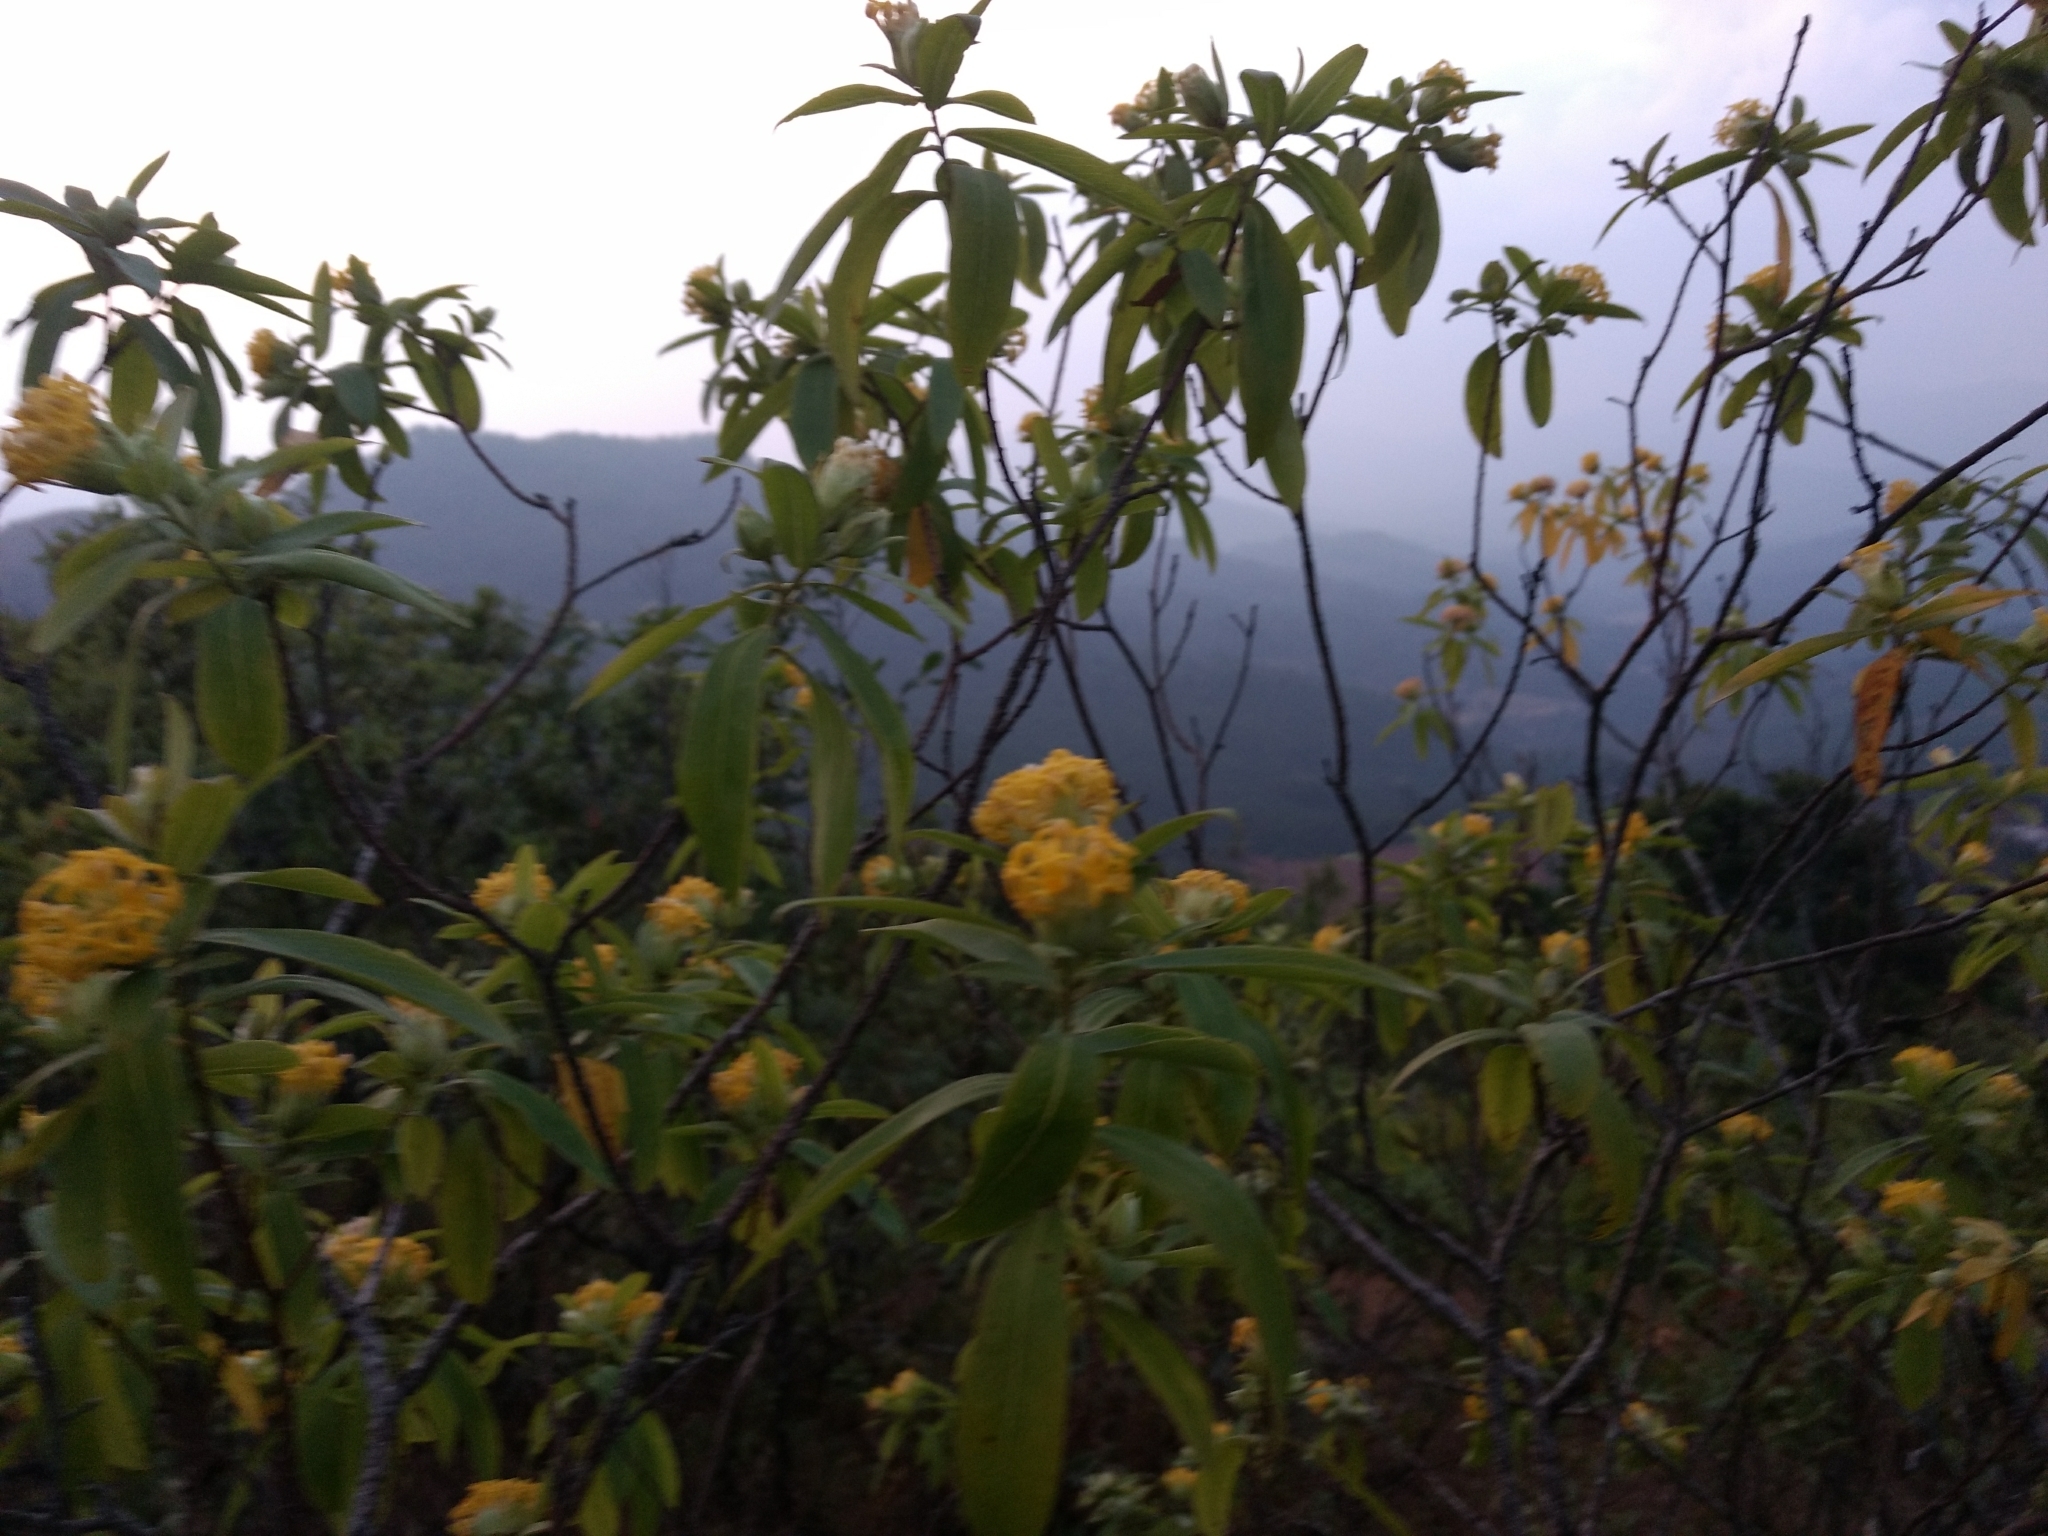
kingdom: Plantae
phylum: Tracheophyta
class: Magnoliopsida
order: Malvales
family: Thymelaeaceae
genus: Gnidia
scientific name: Gnidia glauca
